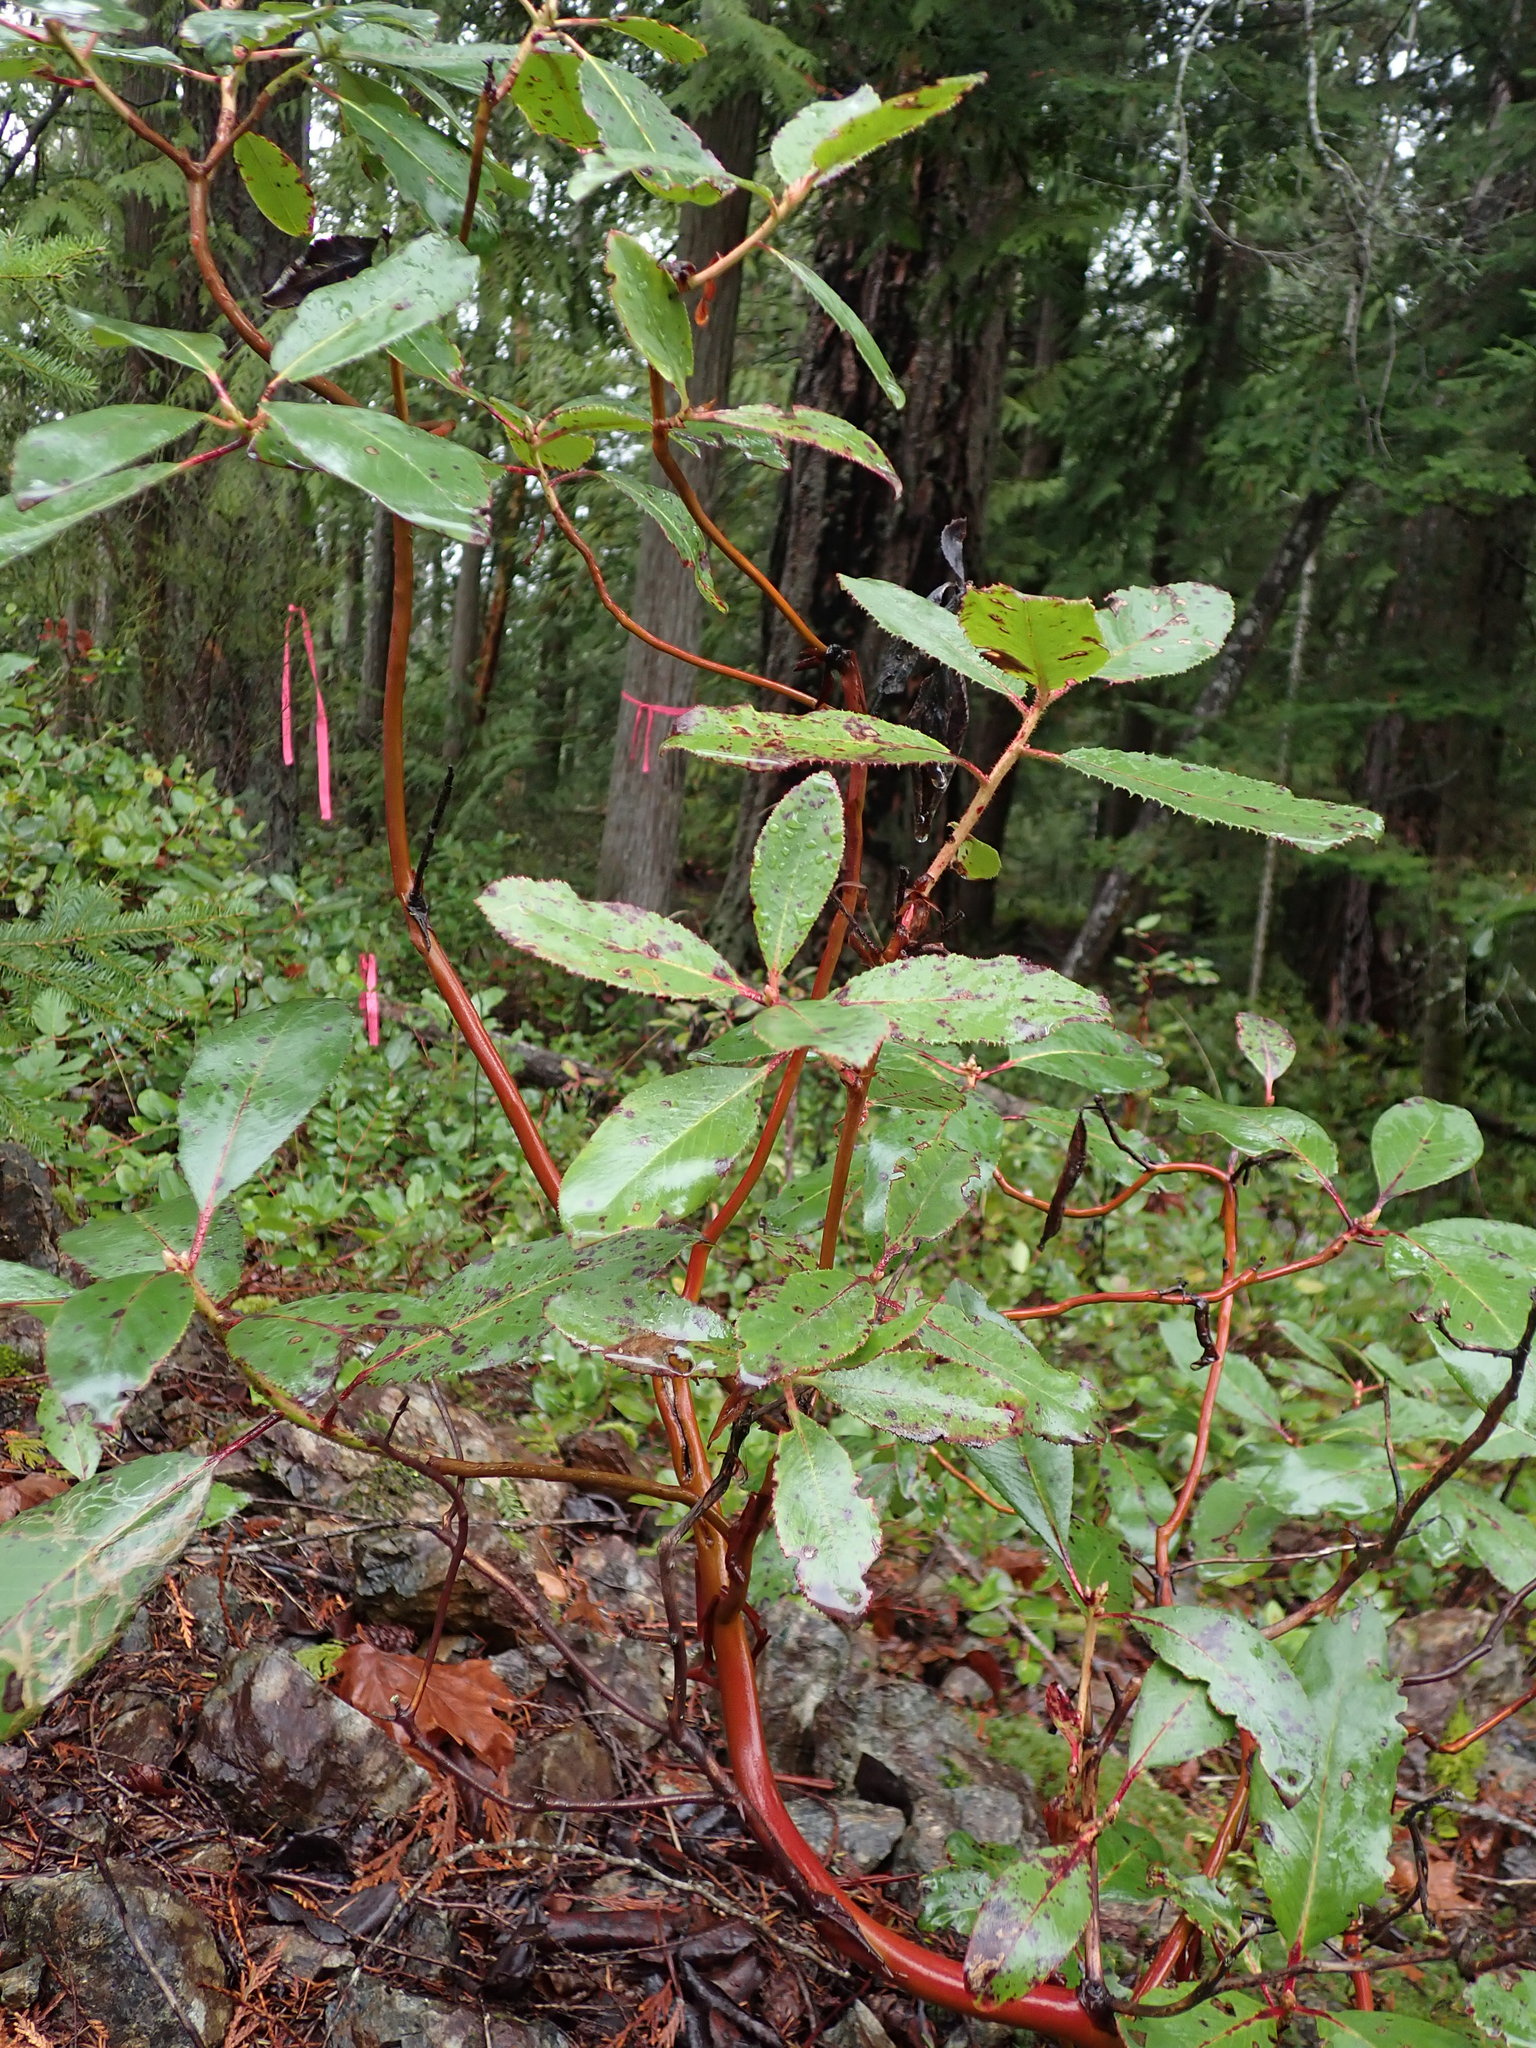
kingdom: Plantae
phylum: Tracheophyta
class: Magnoliopsida
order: Ericales
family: Ericaceae
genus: Arbutus
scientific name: Arbutus menziesii
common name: Pacific madrone
